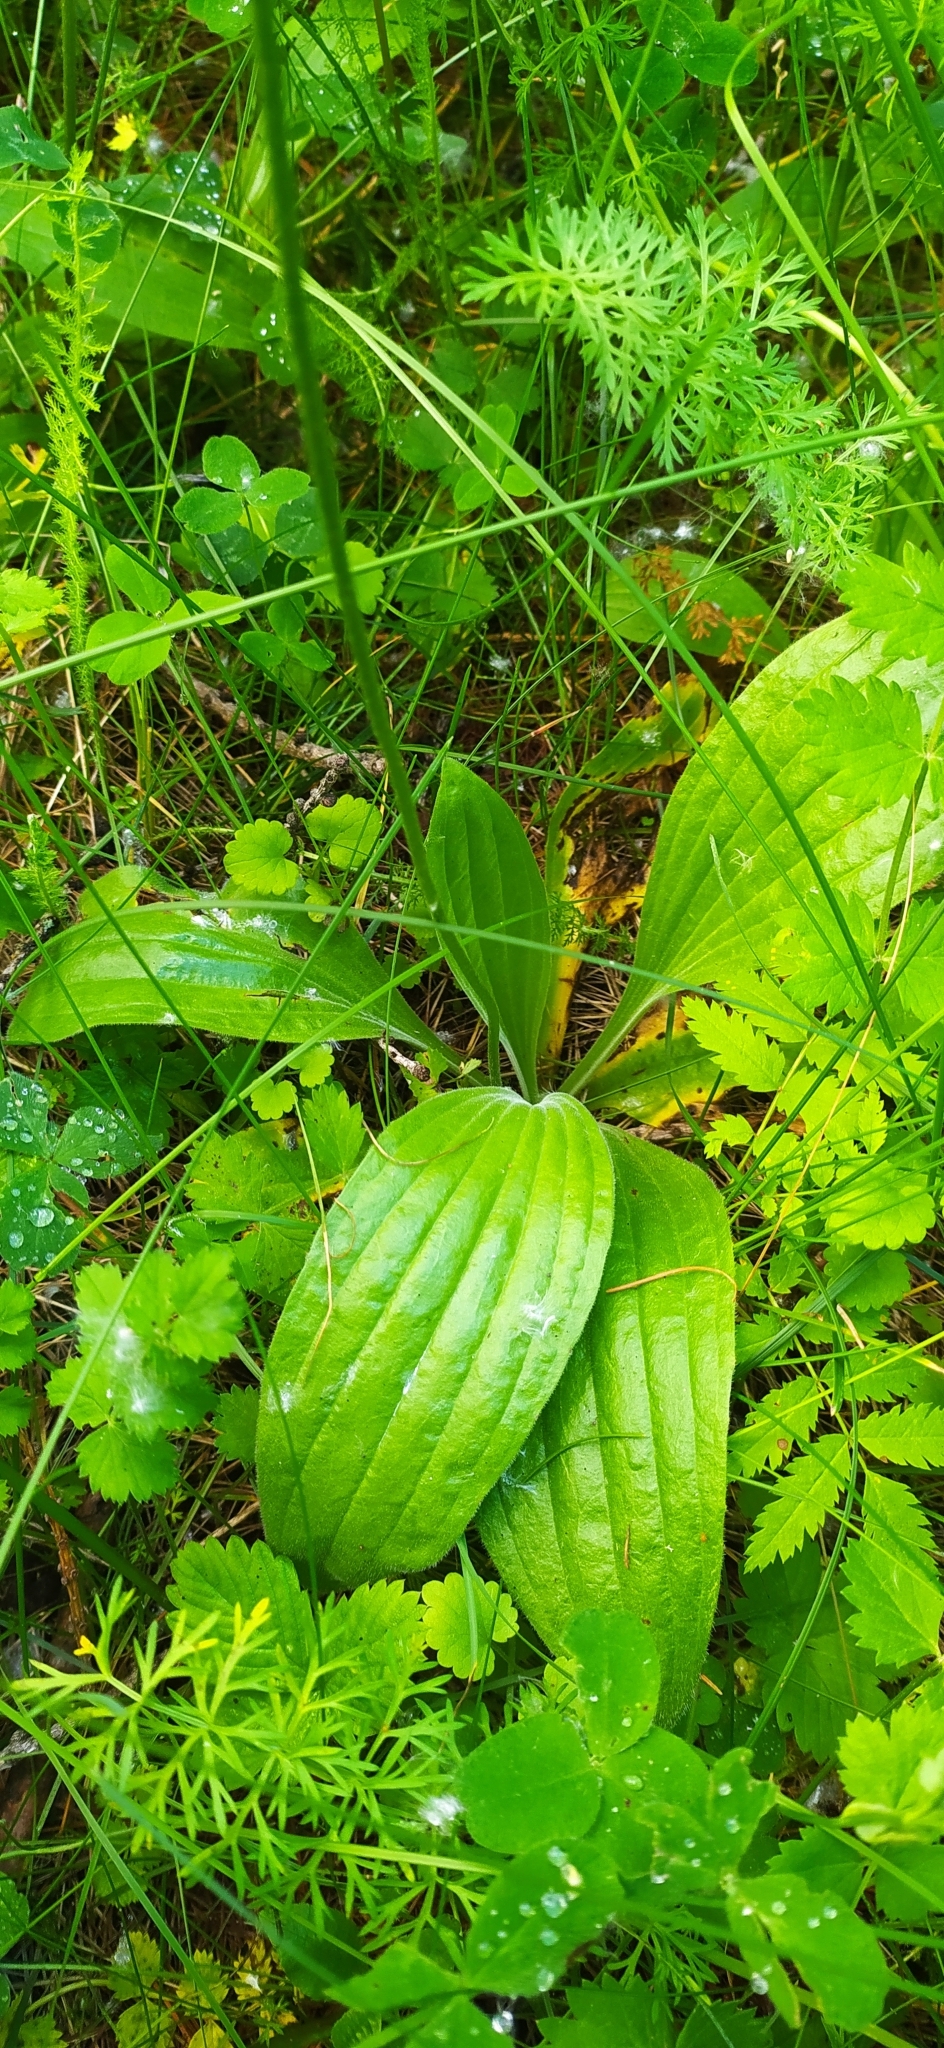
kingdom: Plantae
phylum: Tracheophyta
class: Magnoliopsida
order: Lamiales
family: Plantaginaceae
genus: Plantago
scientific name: Plantago media
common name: Hoary plantain
